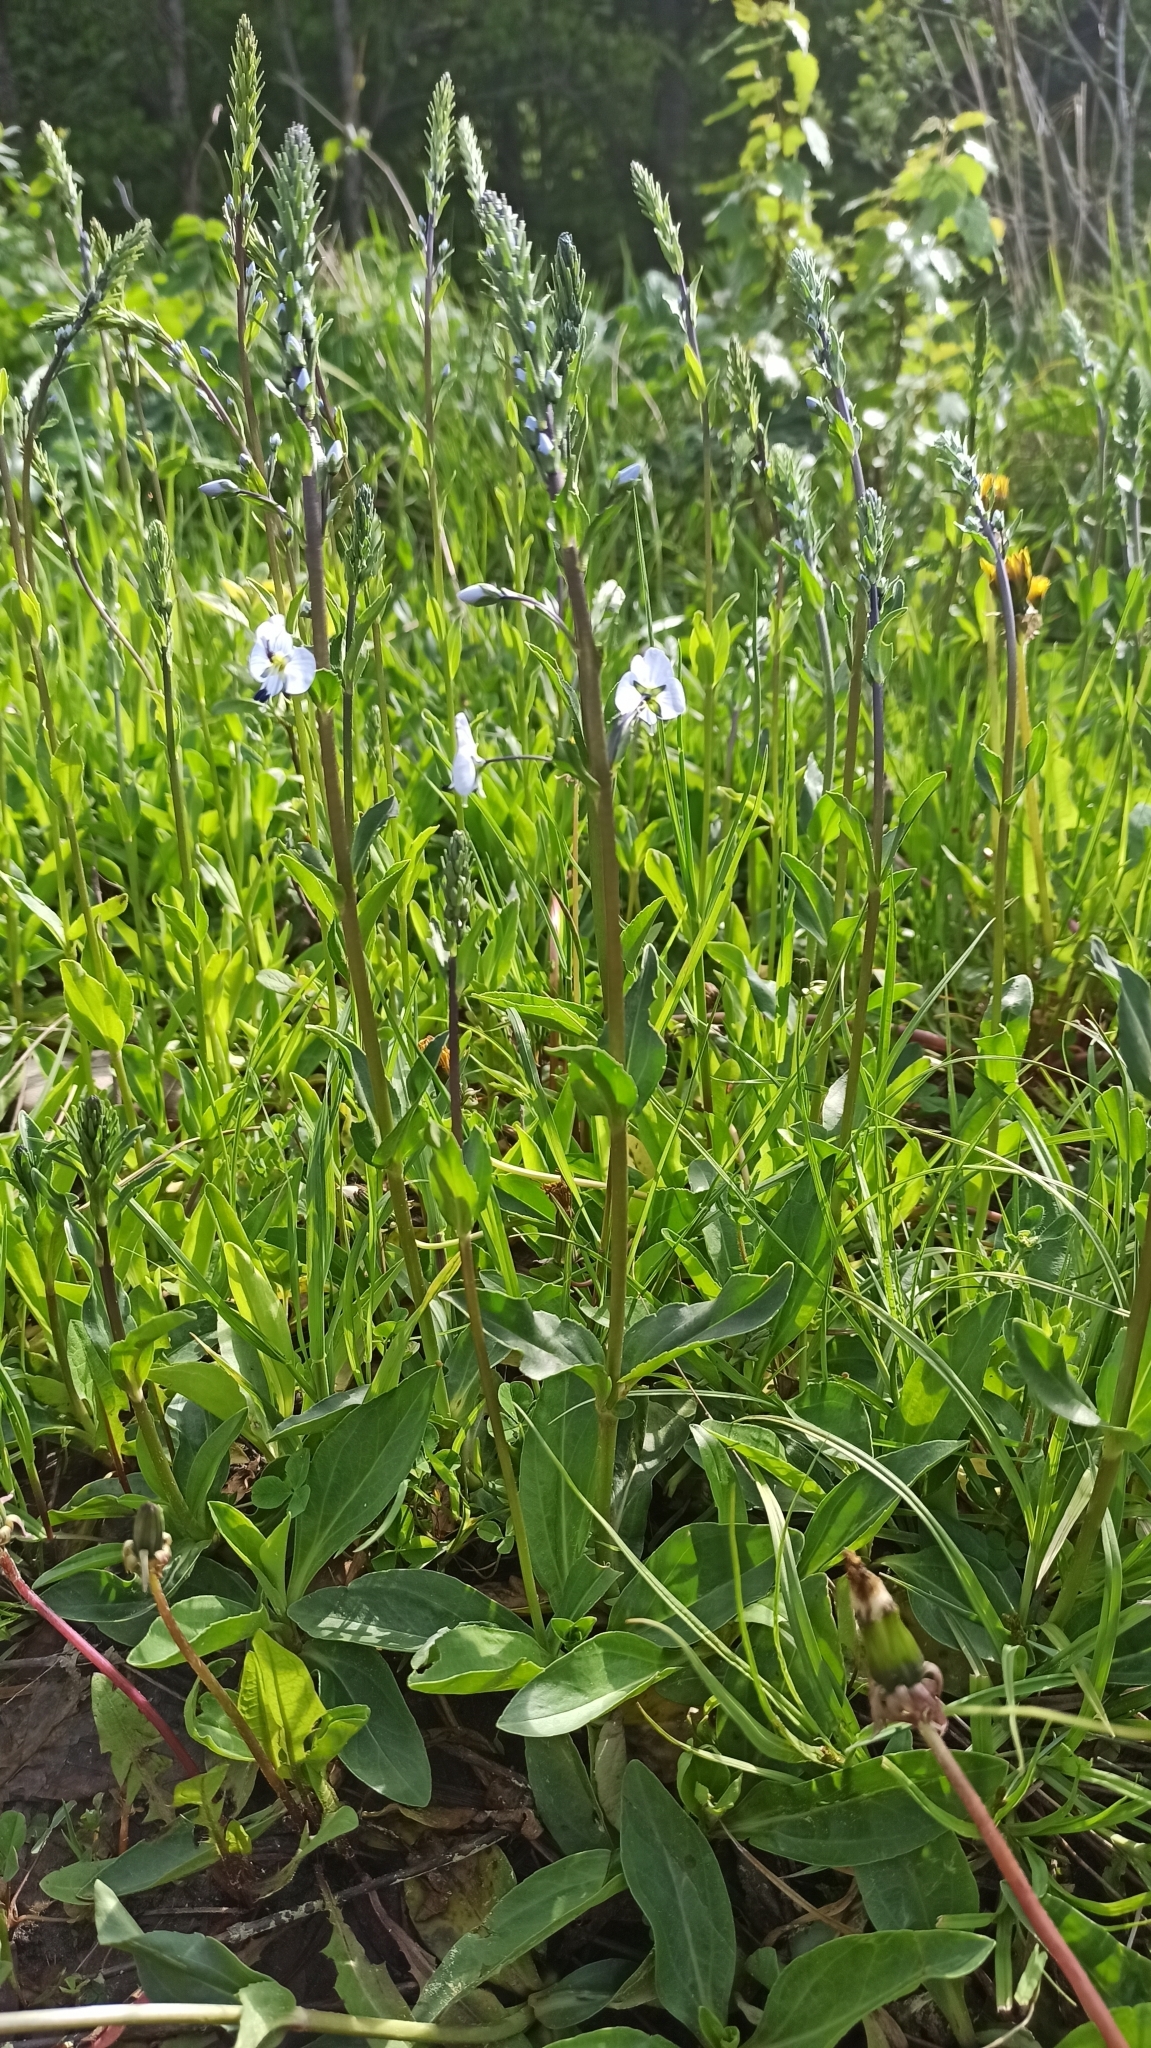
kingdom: Plantae
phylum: Tracheophyta
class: Magnoliopsida
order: Lamiales
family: Plantaginaceae
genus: Veronica
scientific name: Veronica gentianoides
